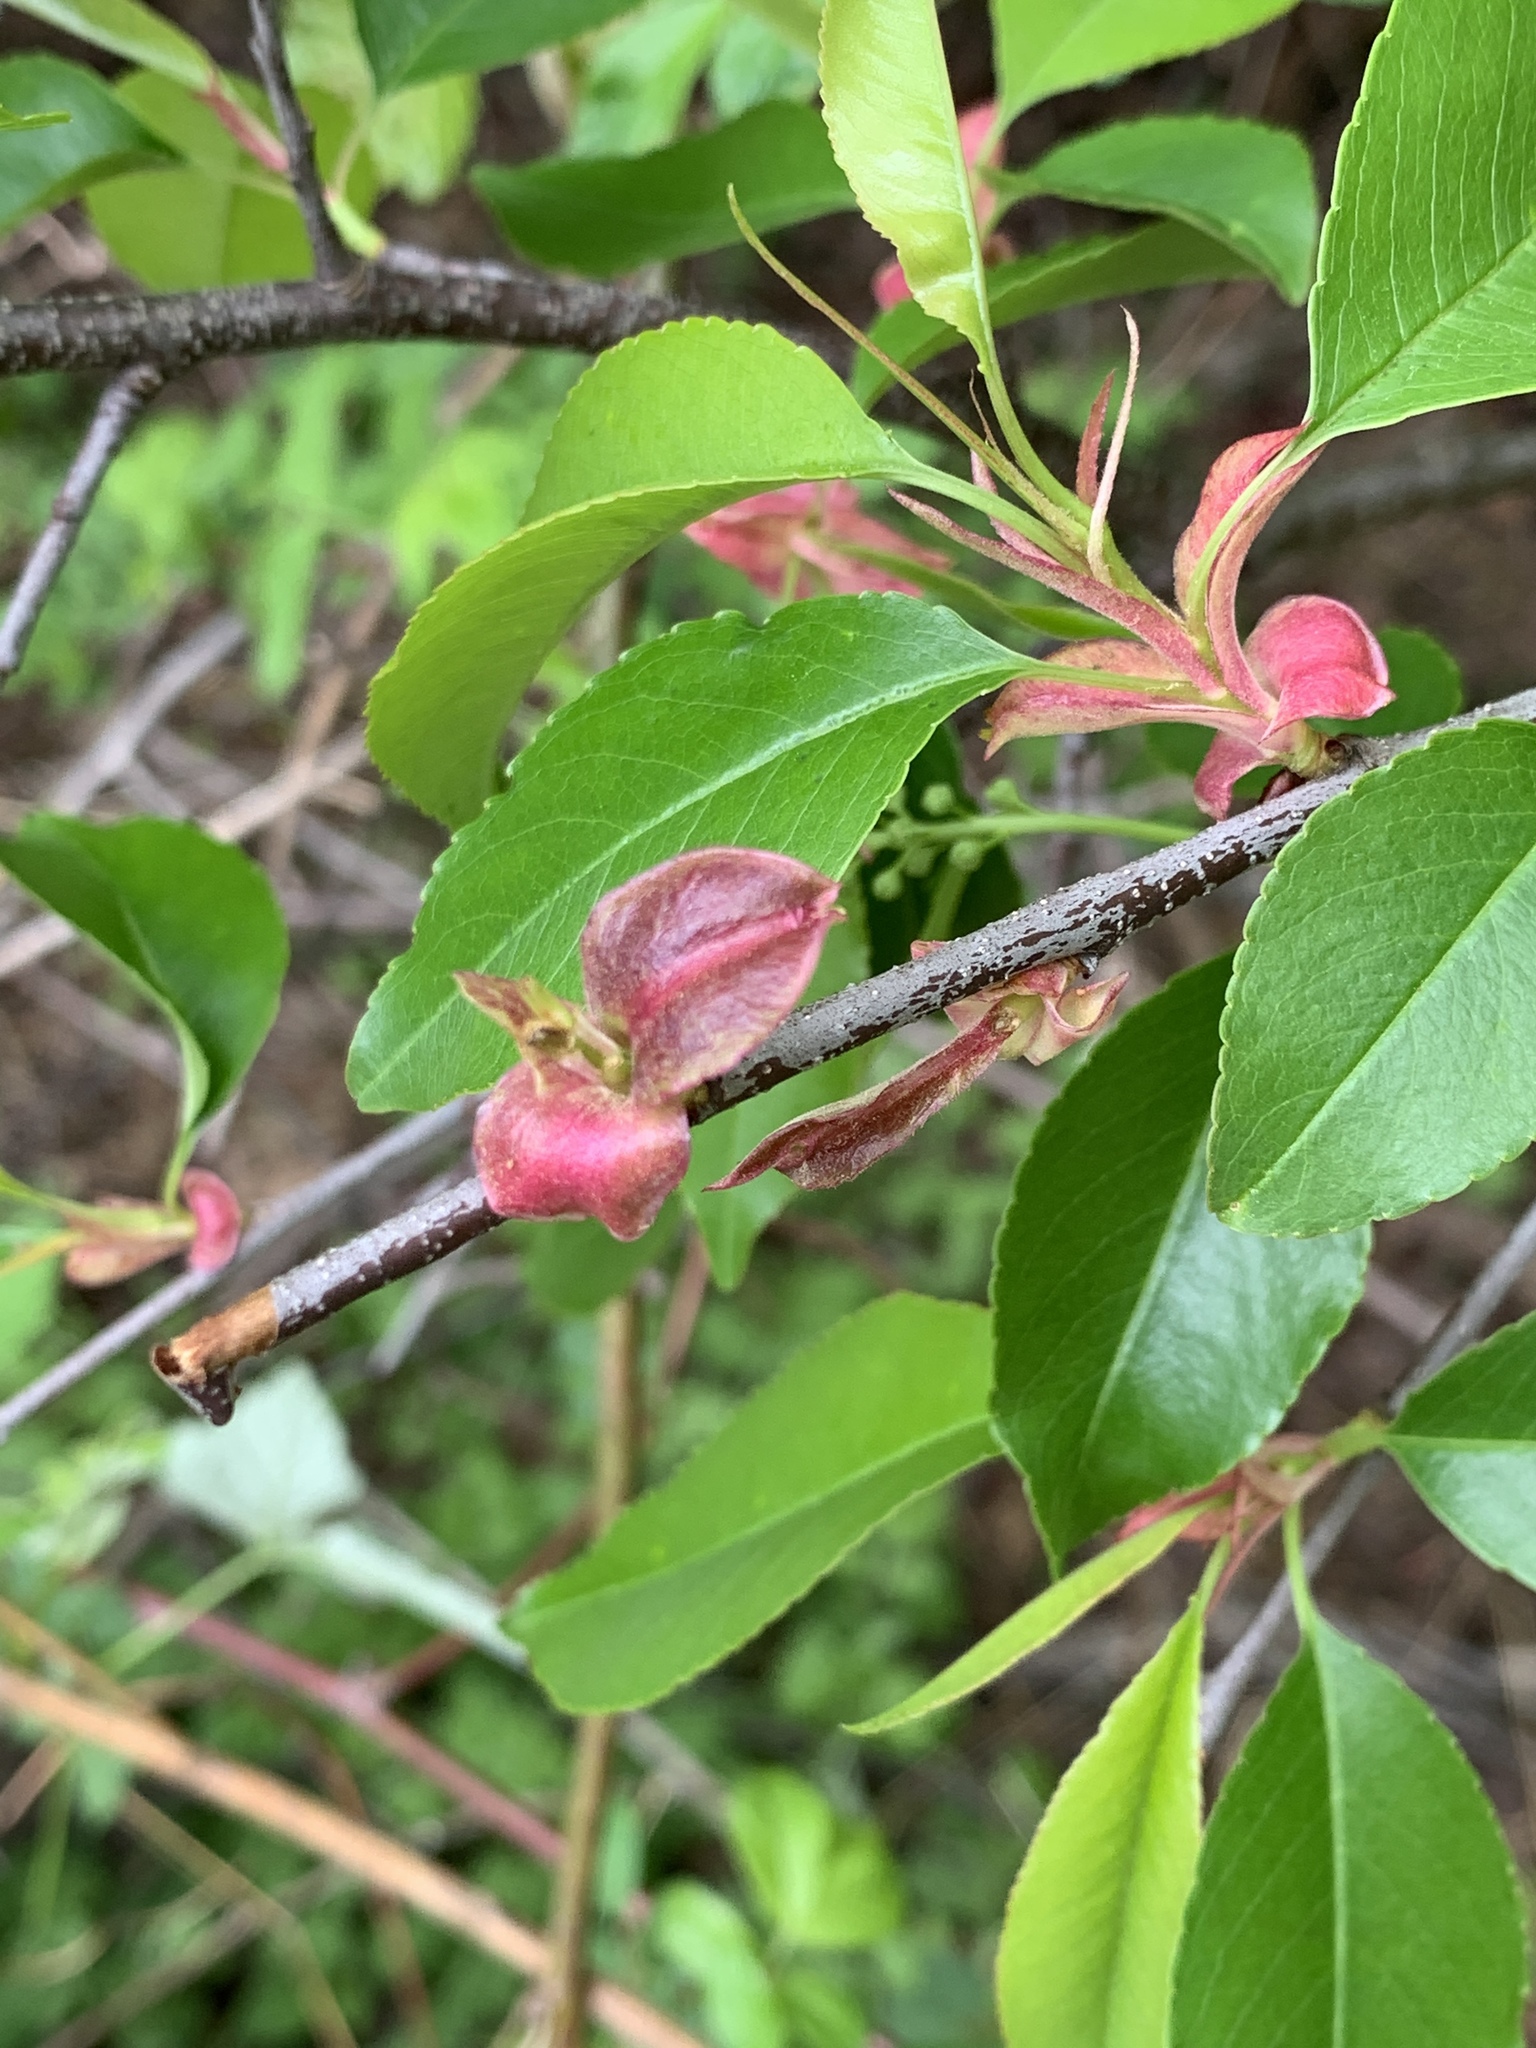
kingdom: Plantae
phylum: Tracheophyta
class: Magnoliopsida
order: Rosales
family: Rosaceae
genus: Prunus
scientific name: Prunus serotina
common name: Black cherry
